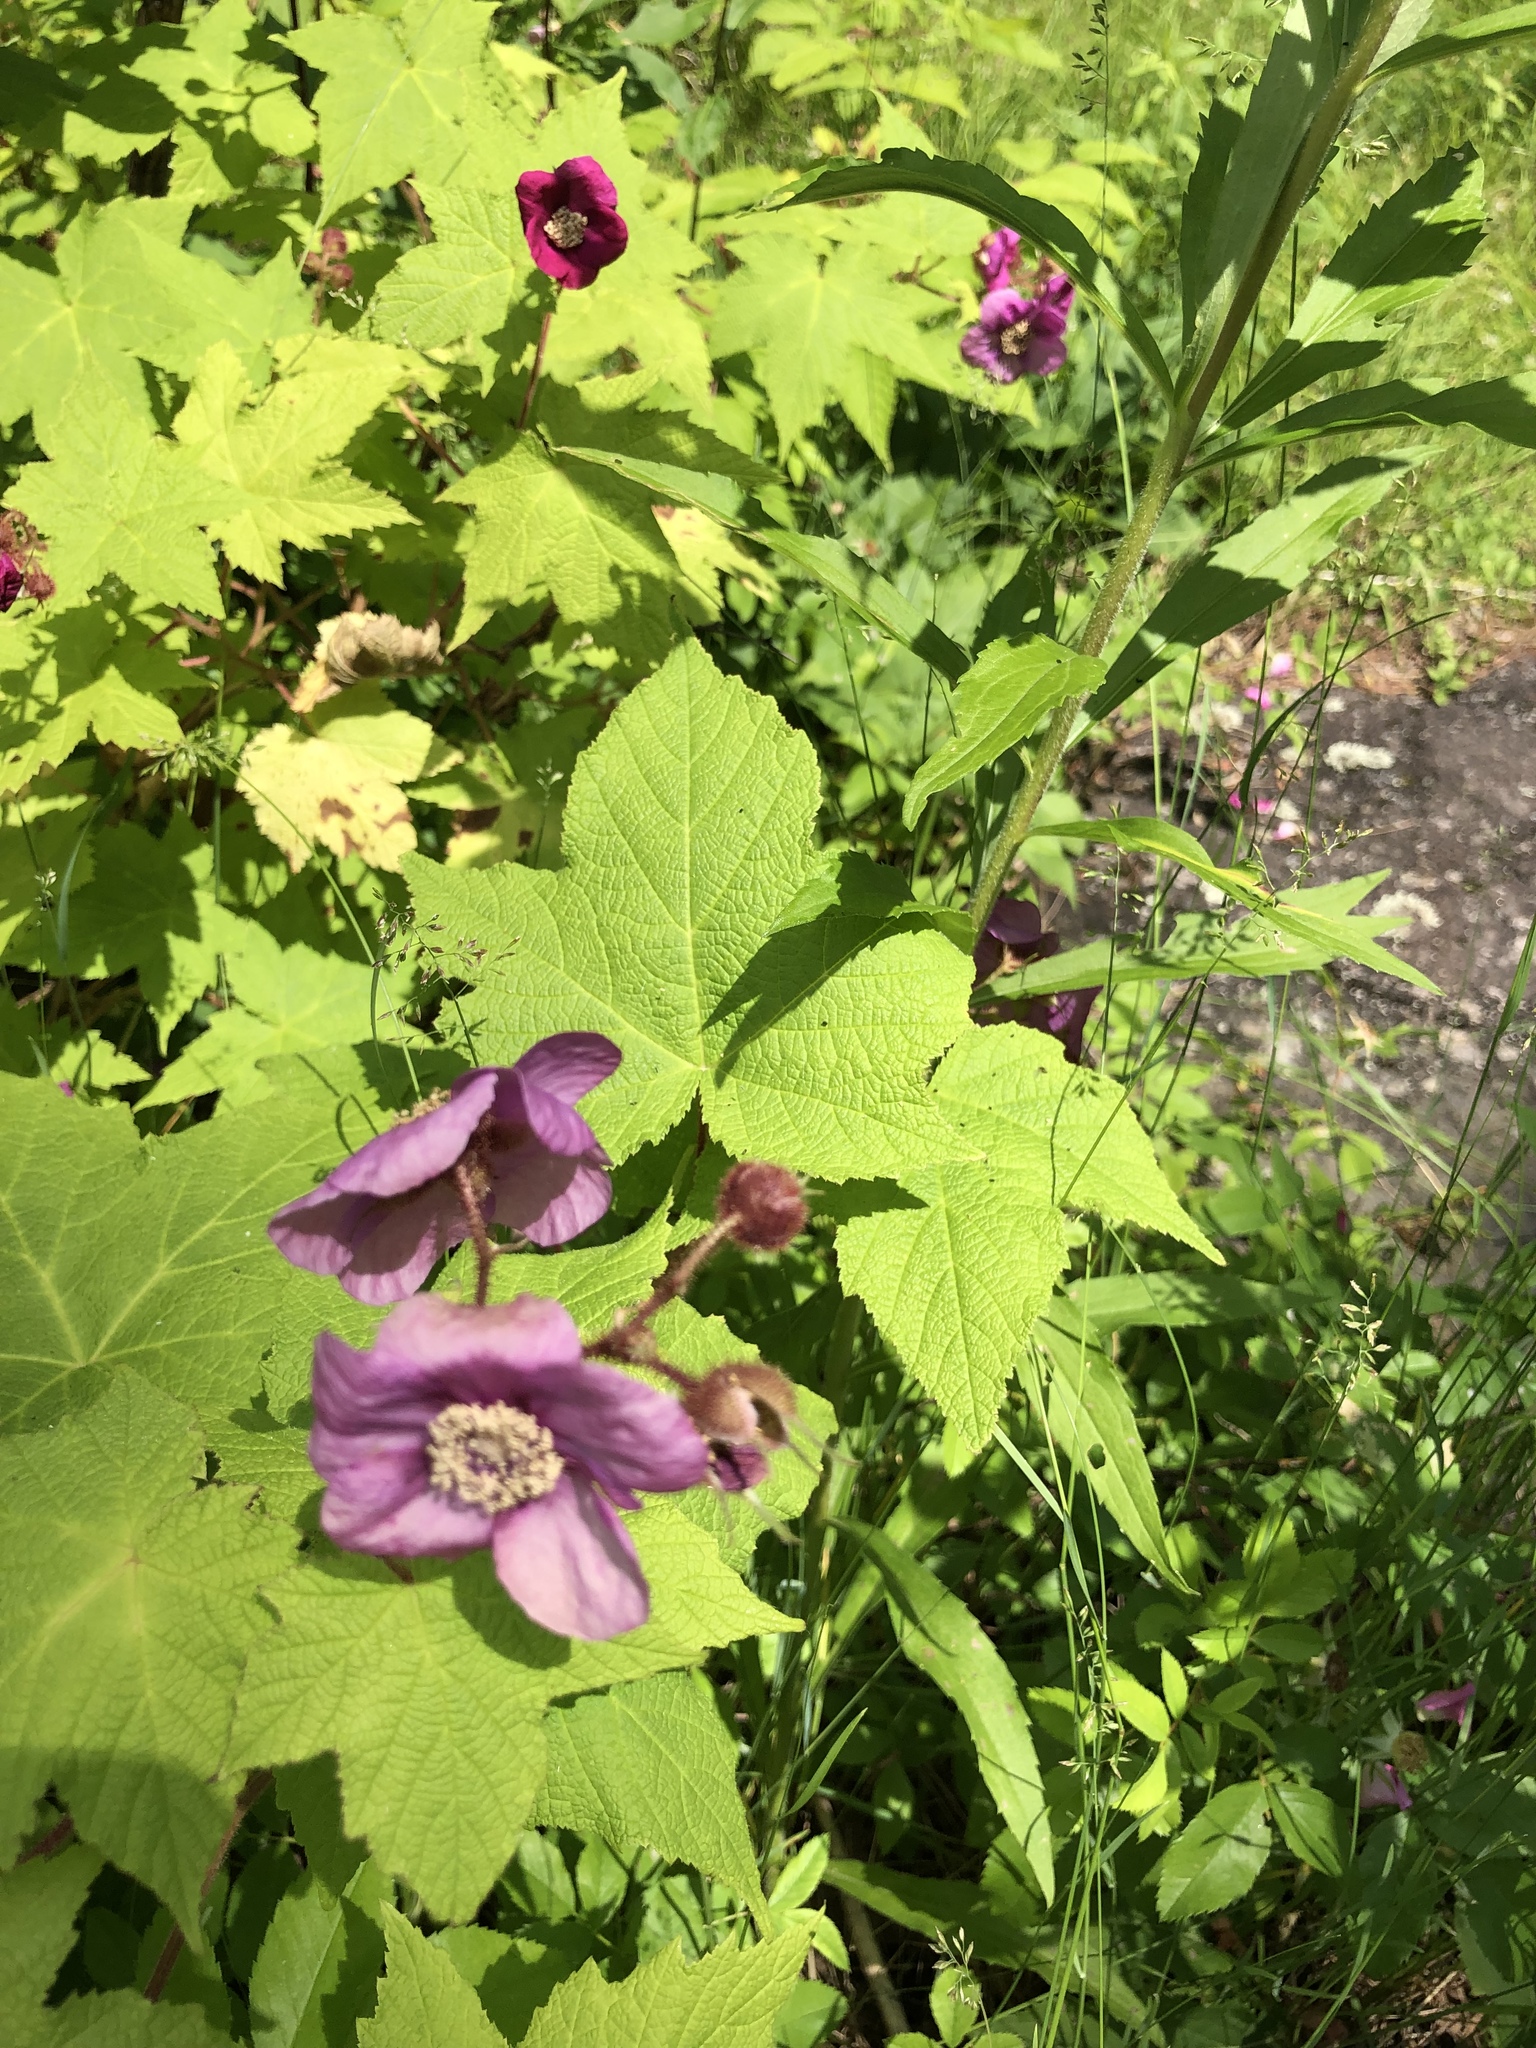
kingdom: Plantae
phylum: Tracheophyta
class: Magnoliopsida
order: Rosales
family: Rosaceae
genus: Rubus
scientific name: Rubus odoratus
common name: Purple-flowered raspberry
